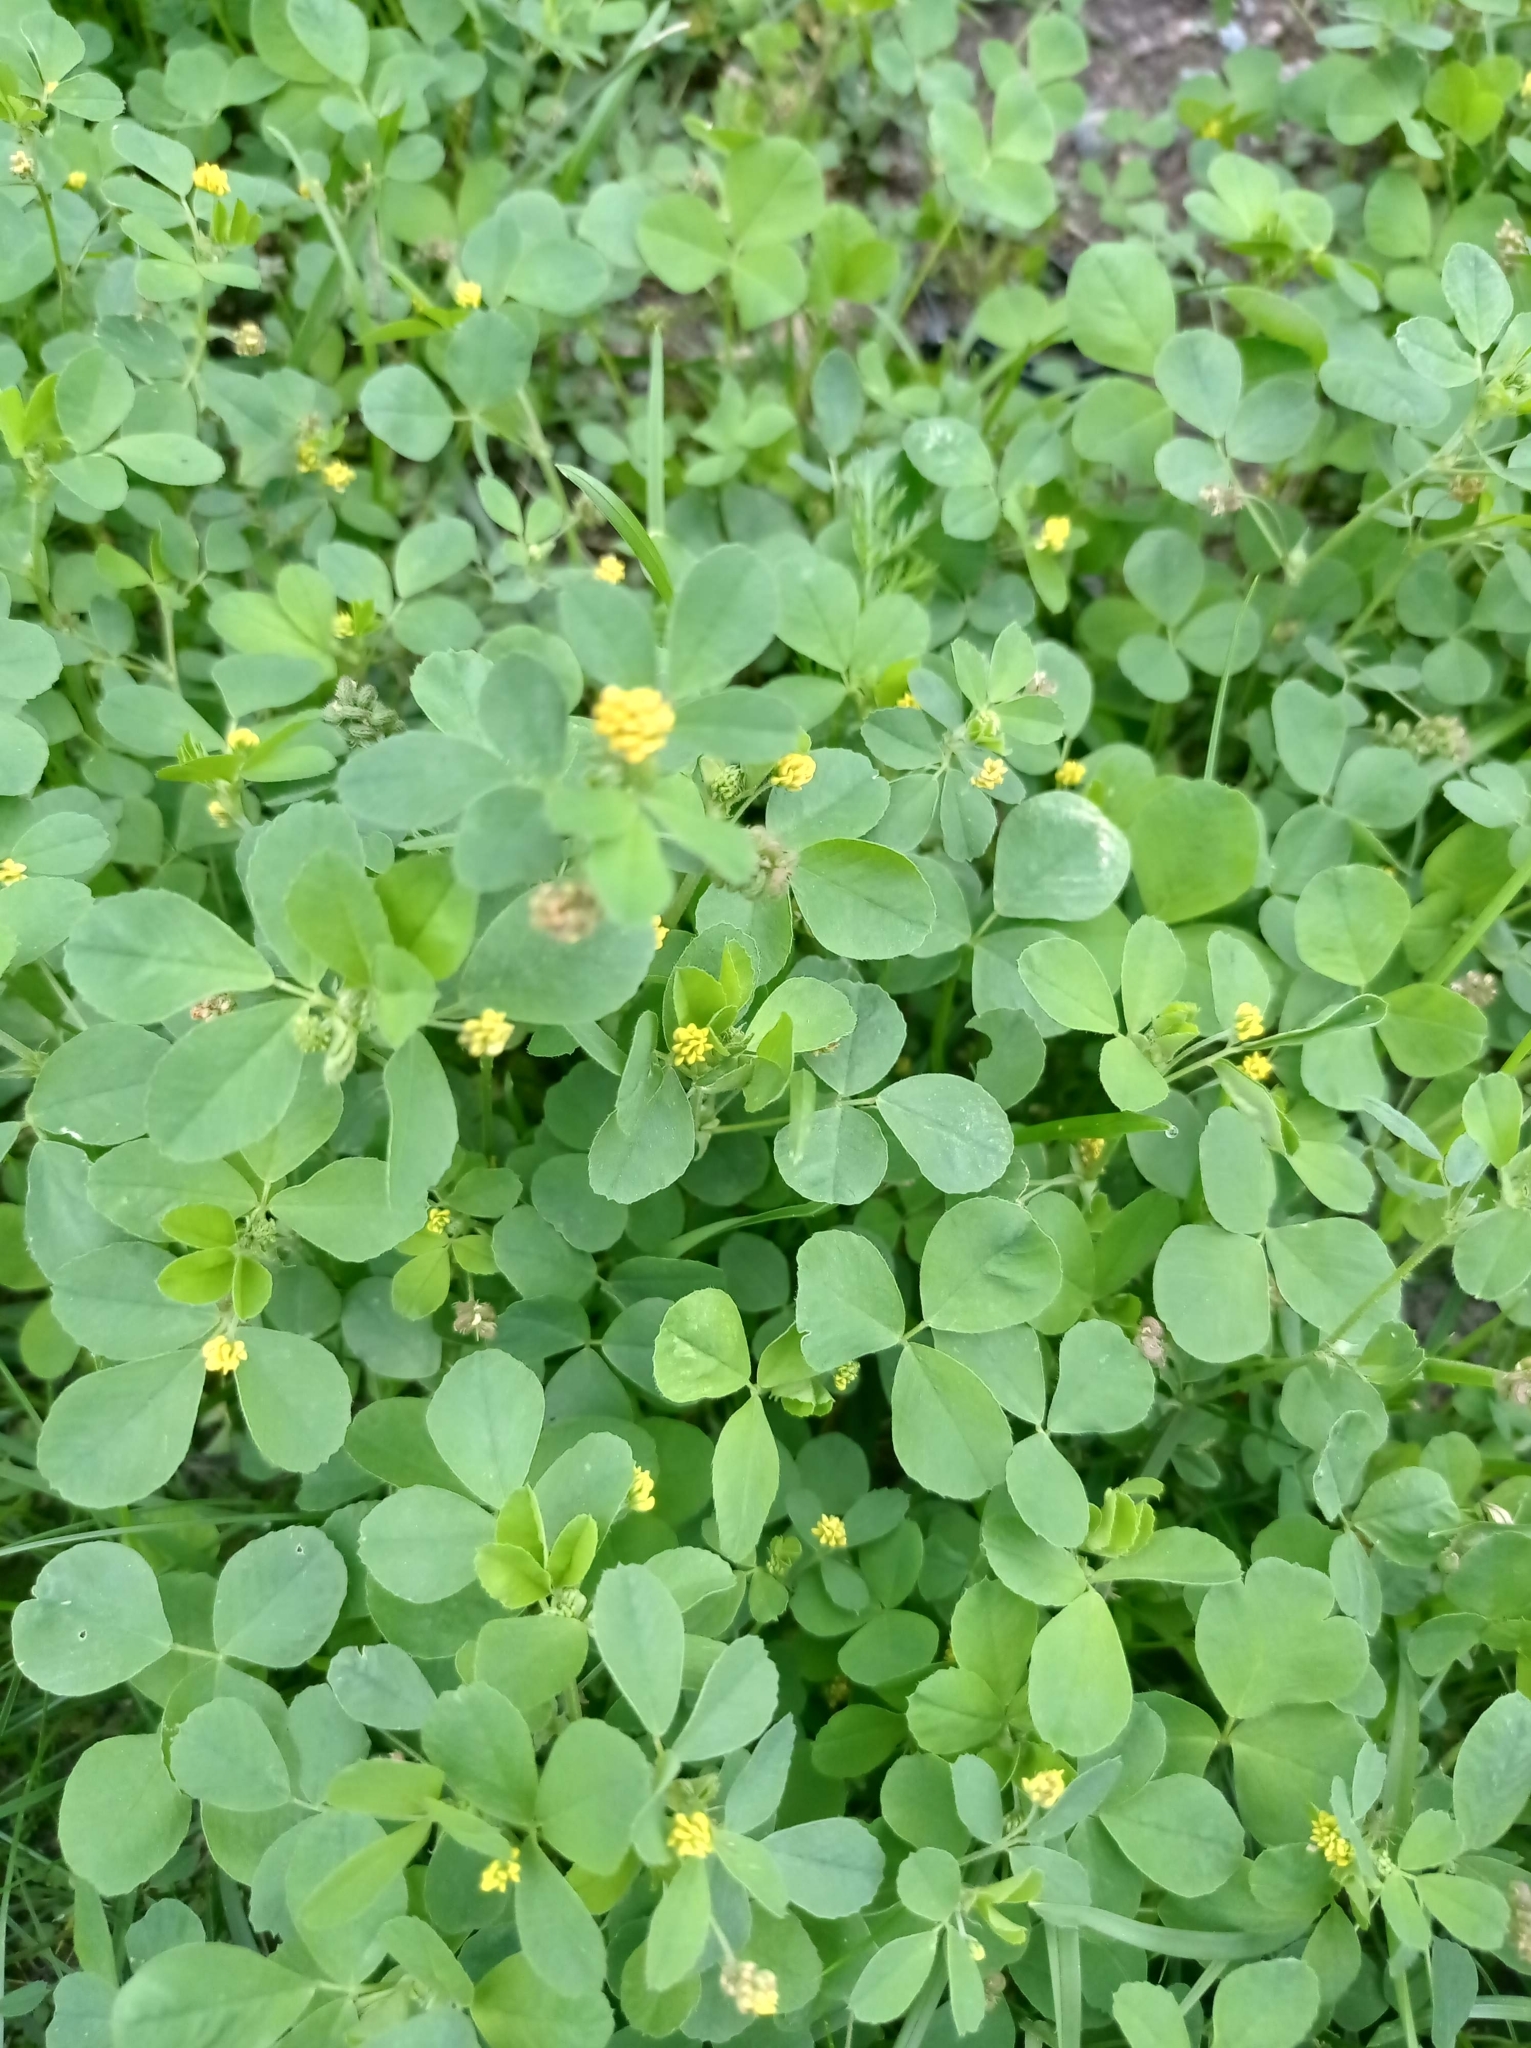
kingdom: Plantae
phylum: Tracheophyta
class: Magnoliopsida
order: Fabales
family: Fabaceae
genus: Medicago
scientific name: Medicago lupulina
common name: Black medick
